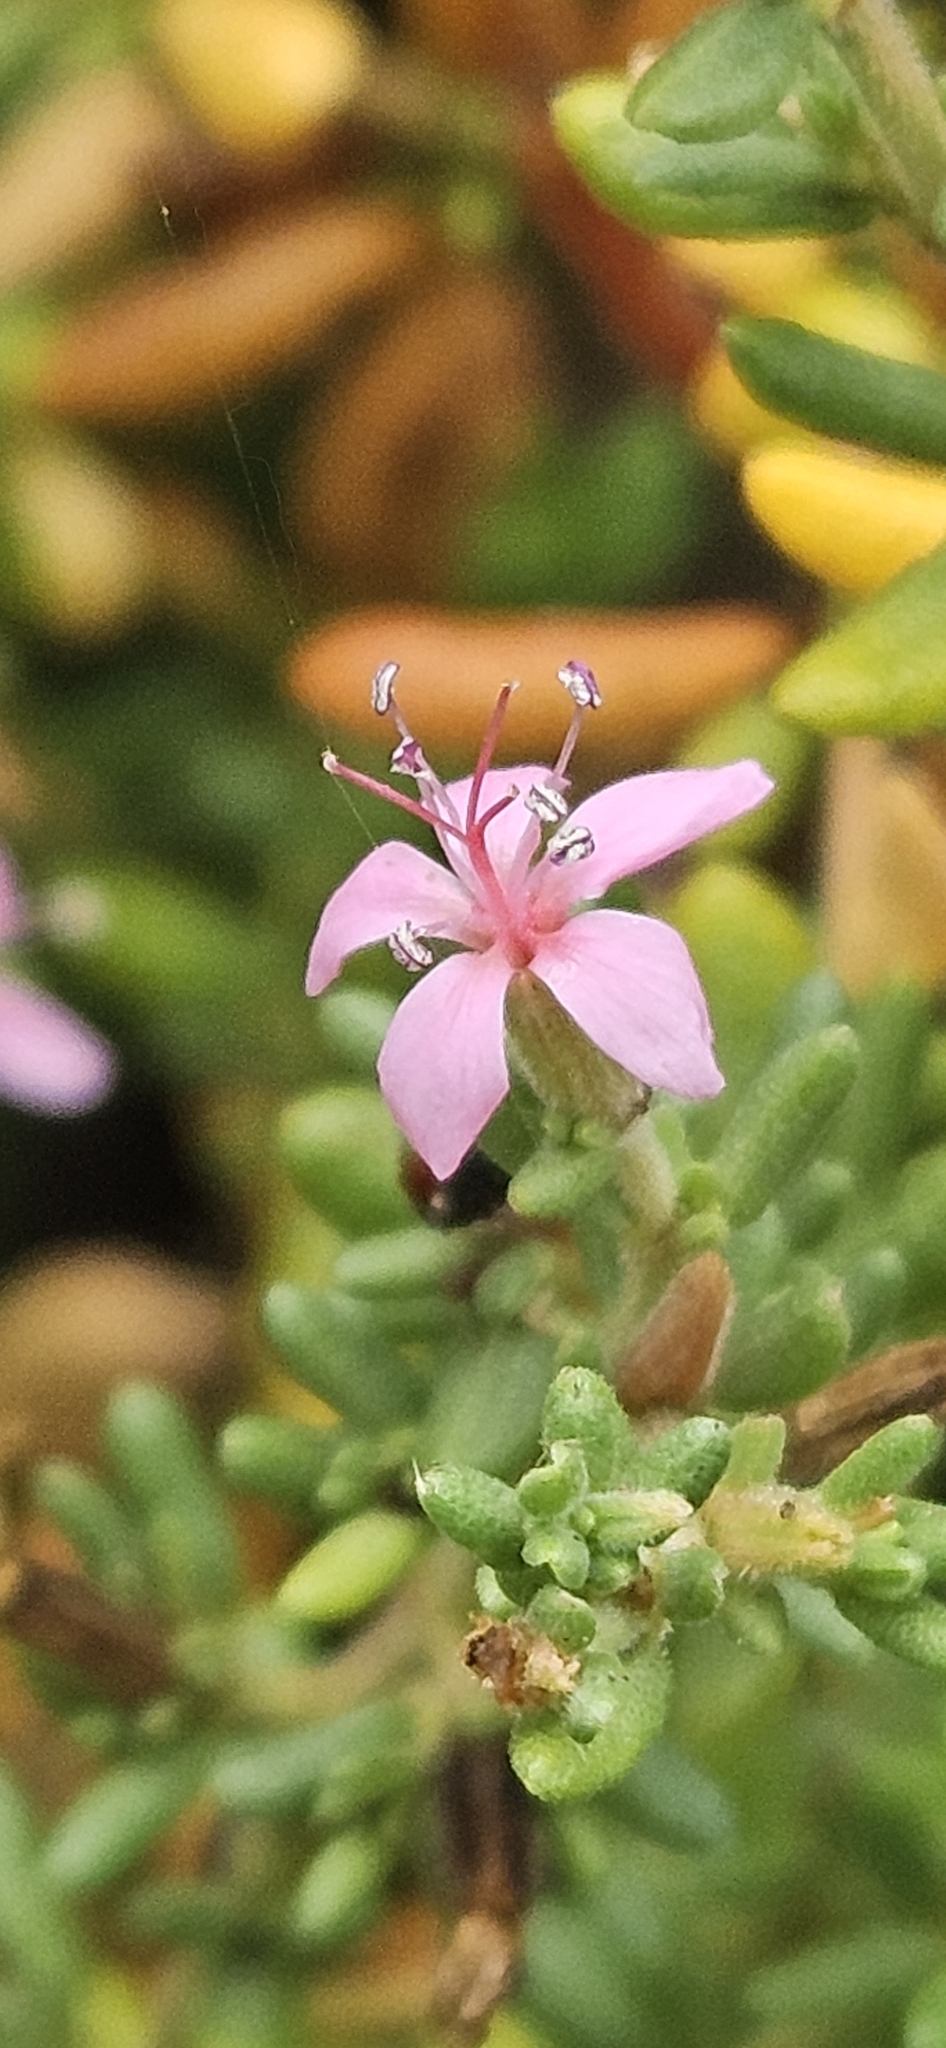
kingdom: Plantae
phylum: Tracheophyta
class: Magnoliopsida
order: Caryophyllales
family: Frankeniaceae
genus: Frankenia
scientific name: Frankenia salina
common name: Alkali seaheath
